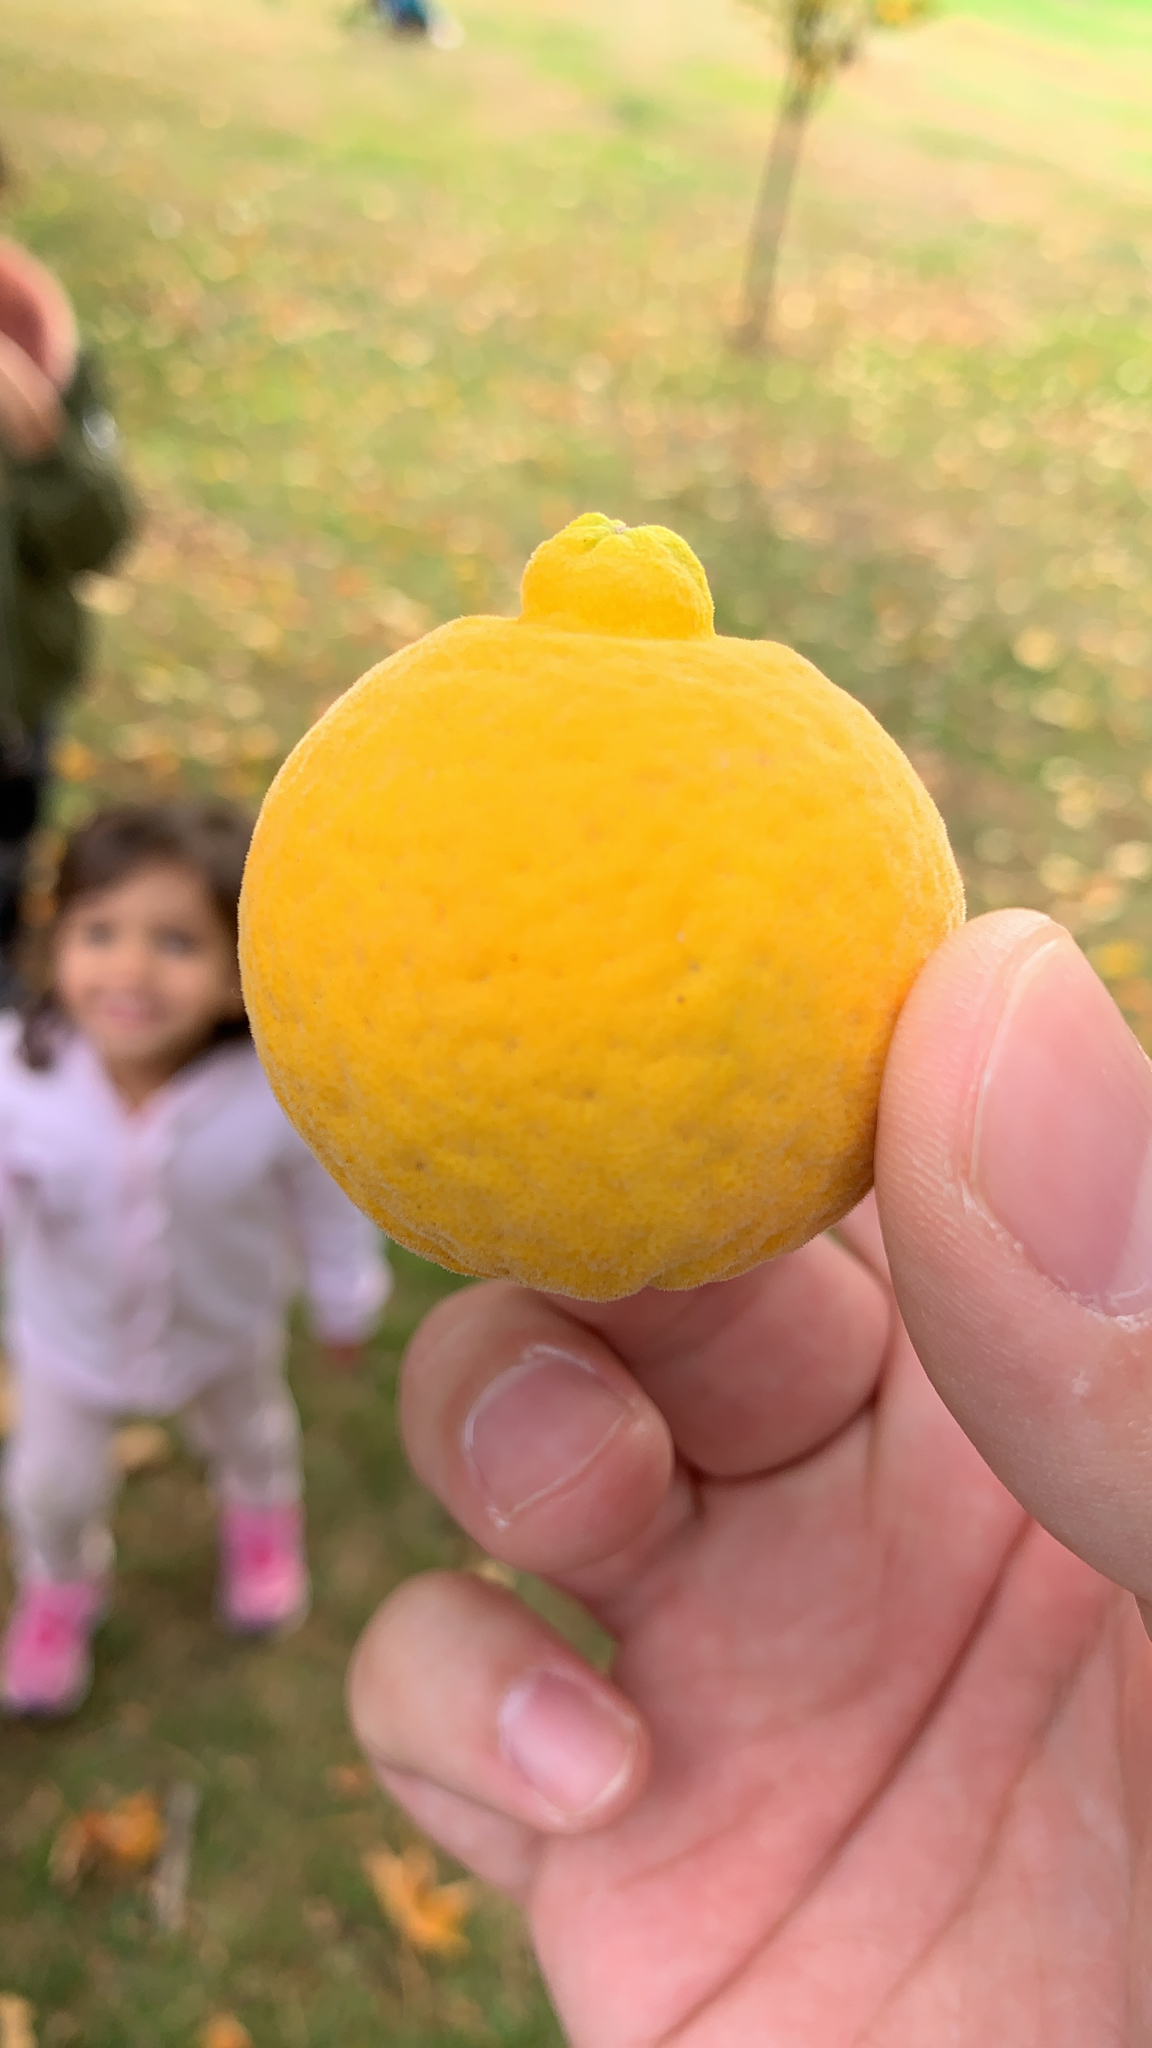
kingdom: Plantae
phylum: Tracheophyta
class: Magnoliopsida
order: Sapindales
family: Rutaceae
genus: Citrus
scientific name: Citrus trifoliata
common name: Japanese bitter-orange
